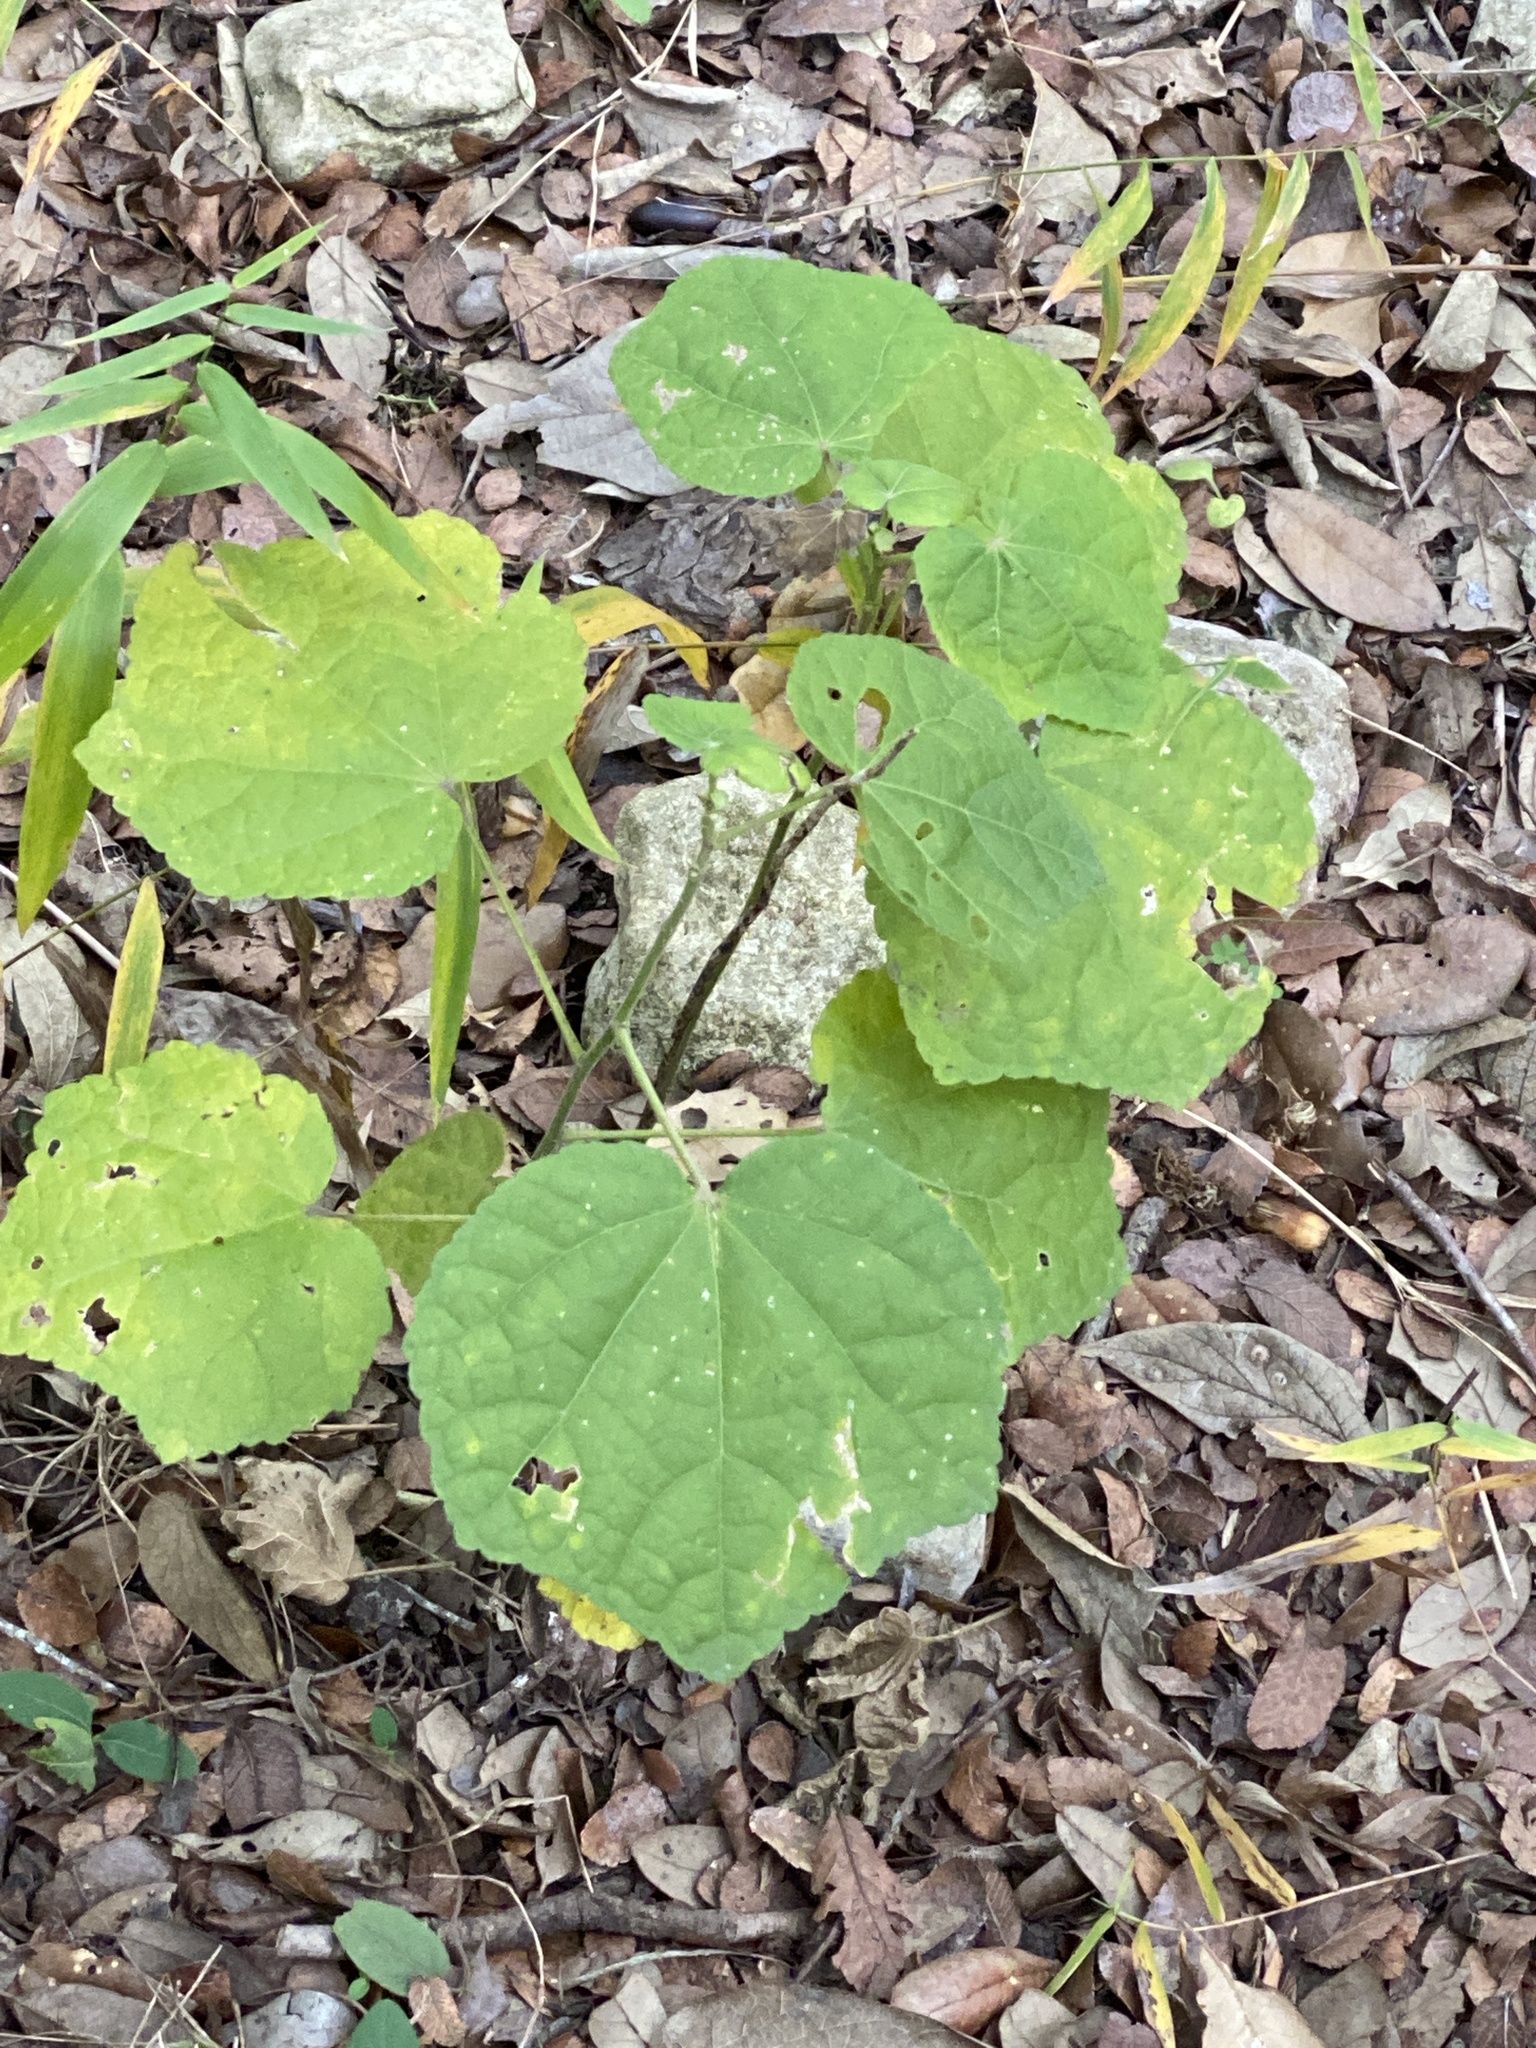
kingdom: Plantae
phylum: Tracheophyta
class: Magnoliopsida
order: Malvales
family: Malvaceae
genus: Malvaviscus
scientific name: Malvaviscus arboreus
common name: Wax mallow
